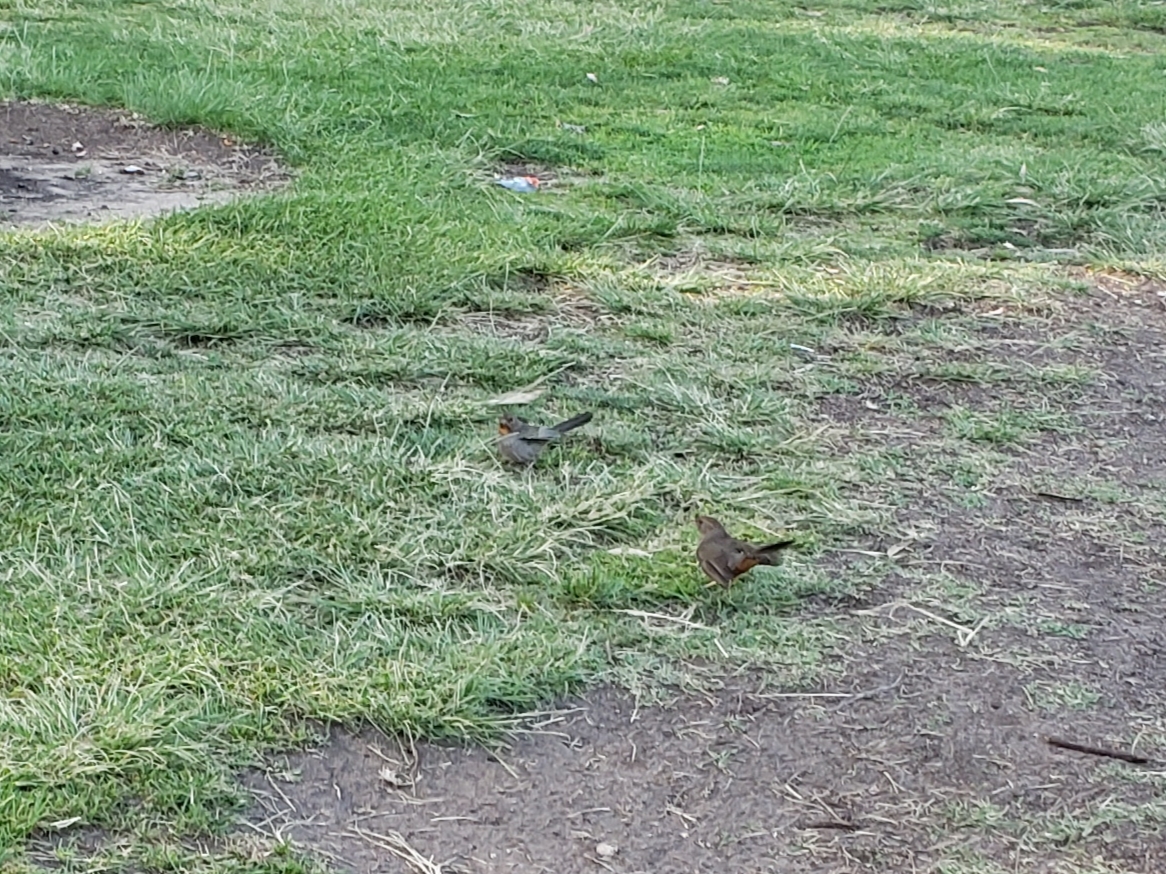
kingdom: Animalia
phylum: Chordata
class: Aves
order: Passeriformes
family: Passerellidae
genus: Melozone
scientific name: Melozone crissalis
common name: California towhee
